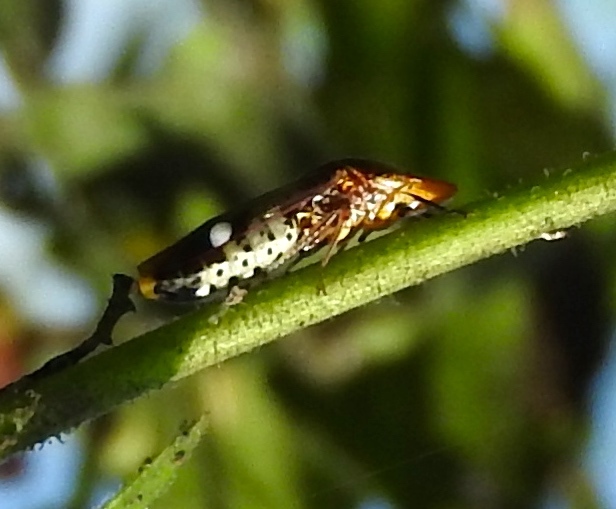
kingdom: Animalia
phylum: Arthropoda
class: Insecta
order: Hemiptera
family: Cicadellidae
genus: Homalodisca
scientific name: Homalodisca ichthyocephala
